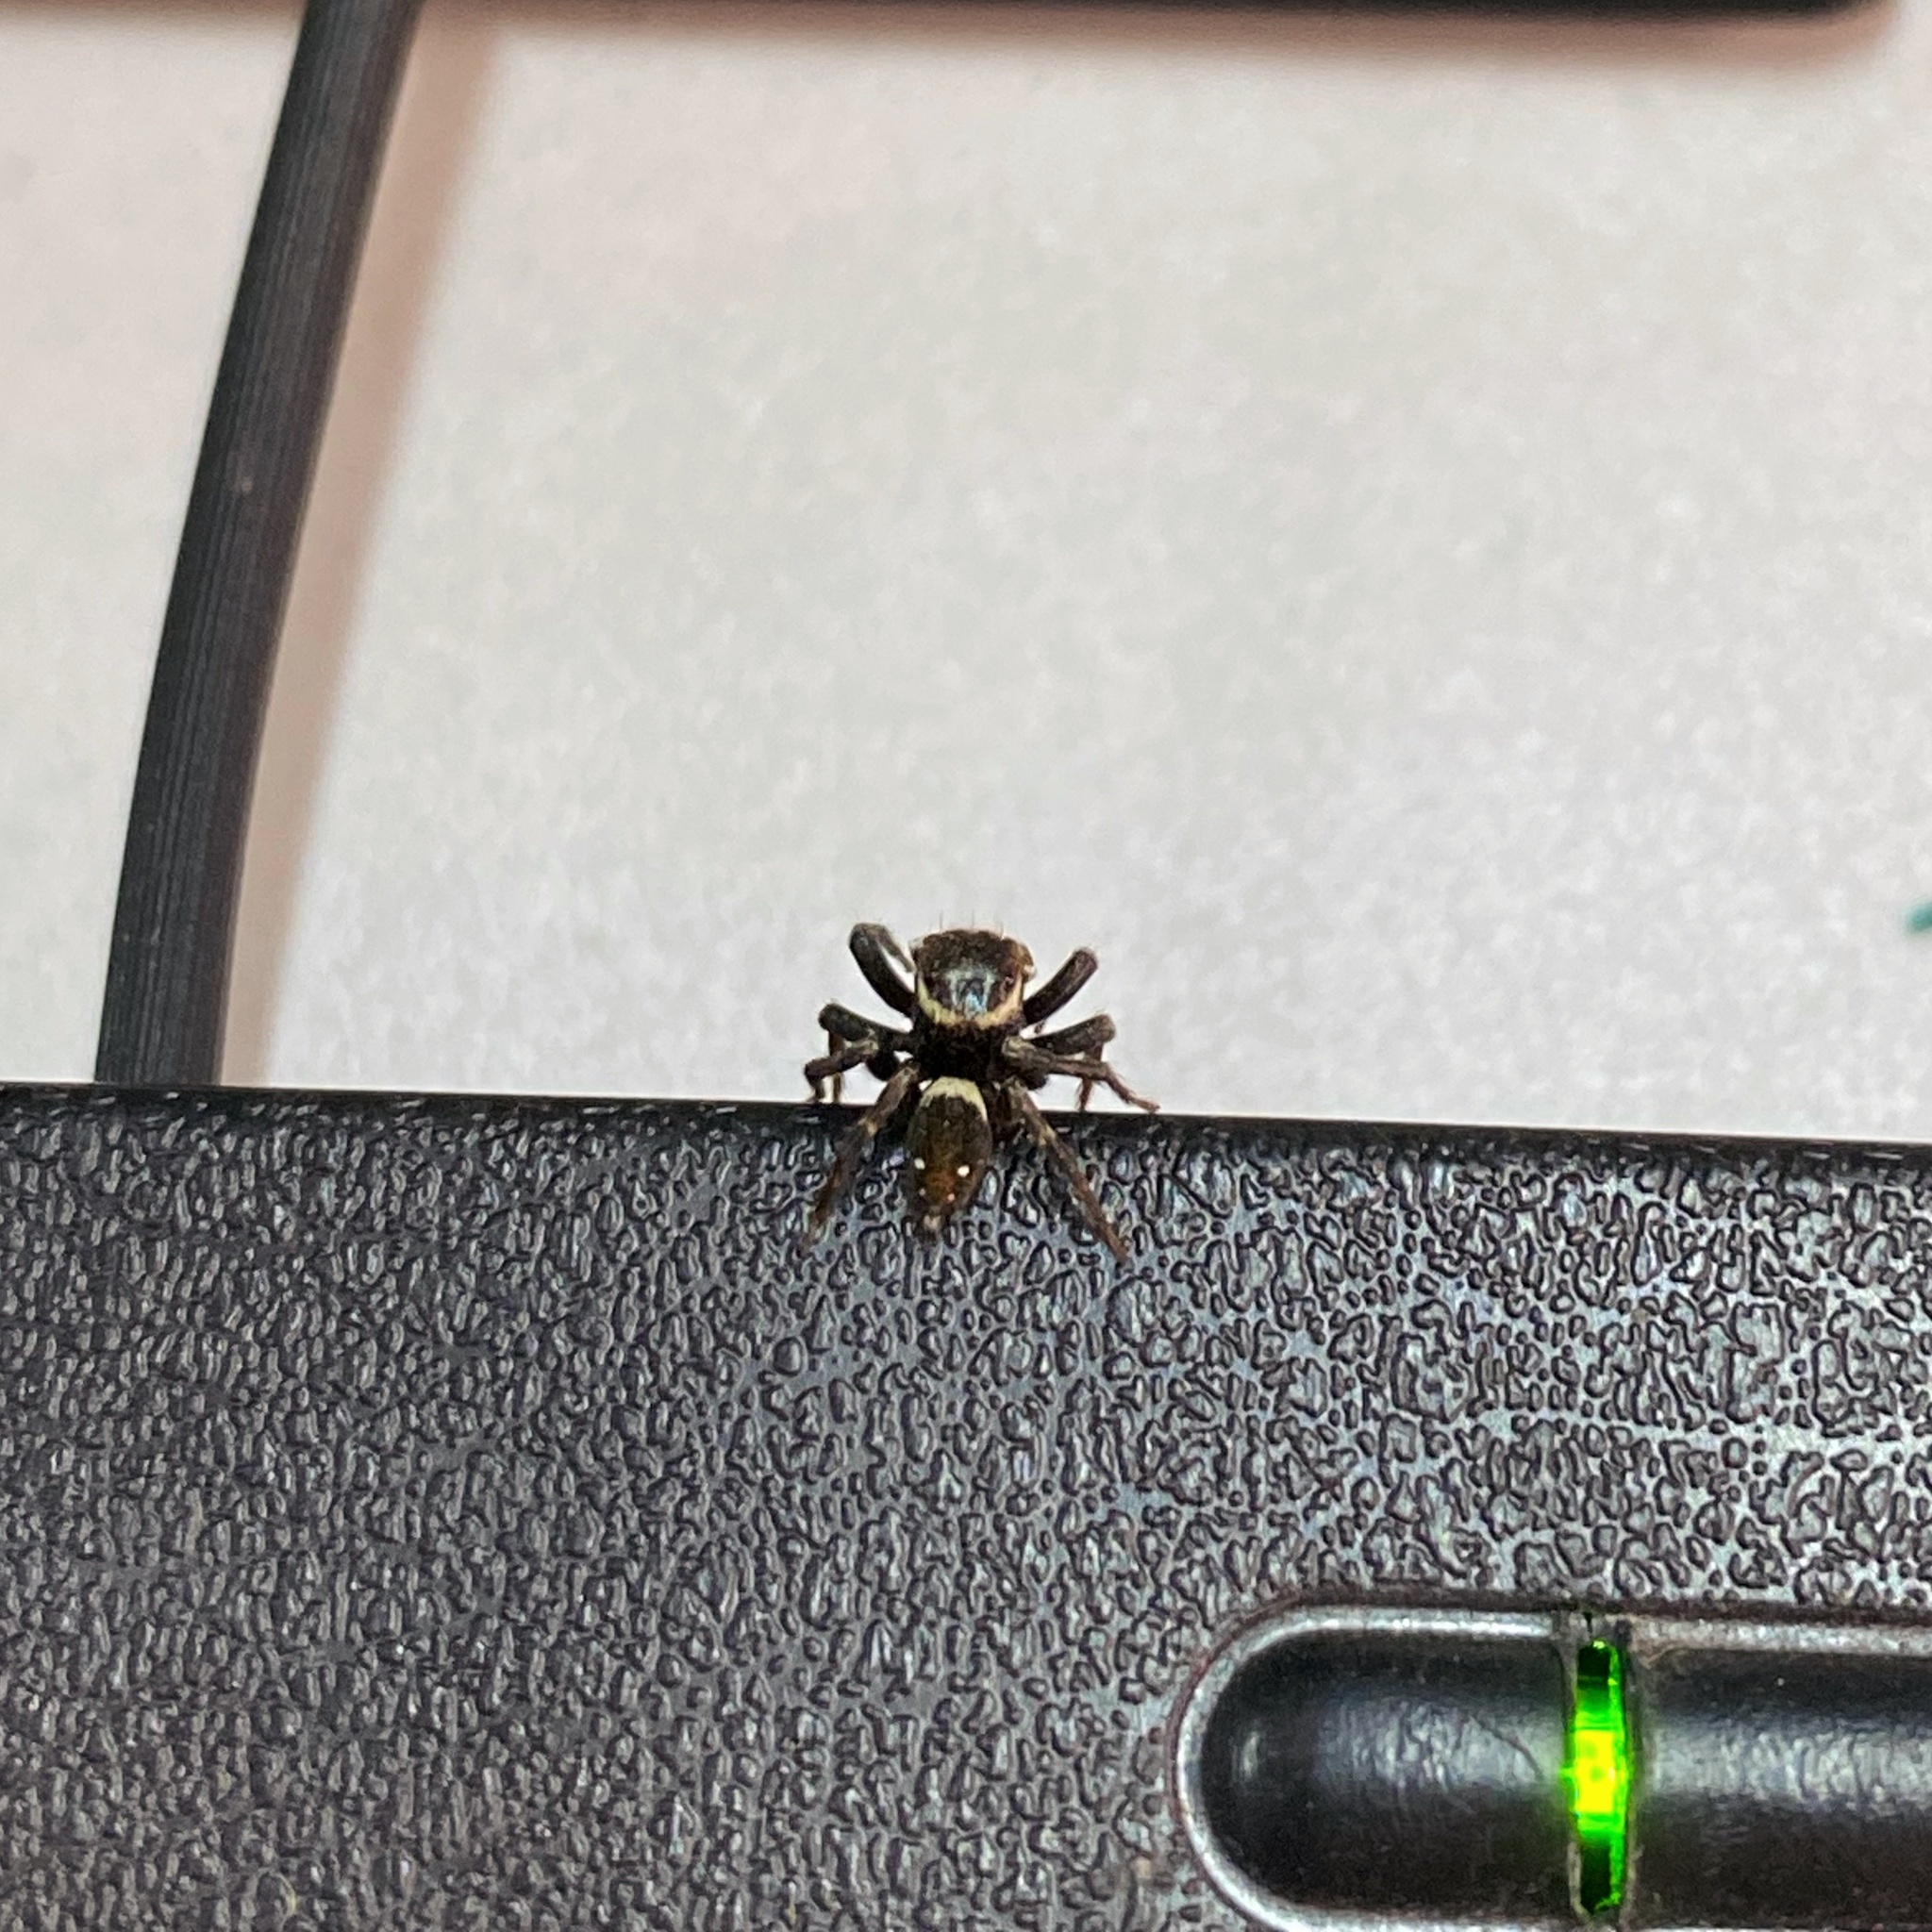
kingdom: Animalia
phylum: Arthropoda
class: Arachnida
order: Araneae
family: Salticidae
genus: Hasarius
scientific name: Hasarius adansoni
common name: Jumping spider
